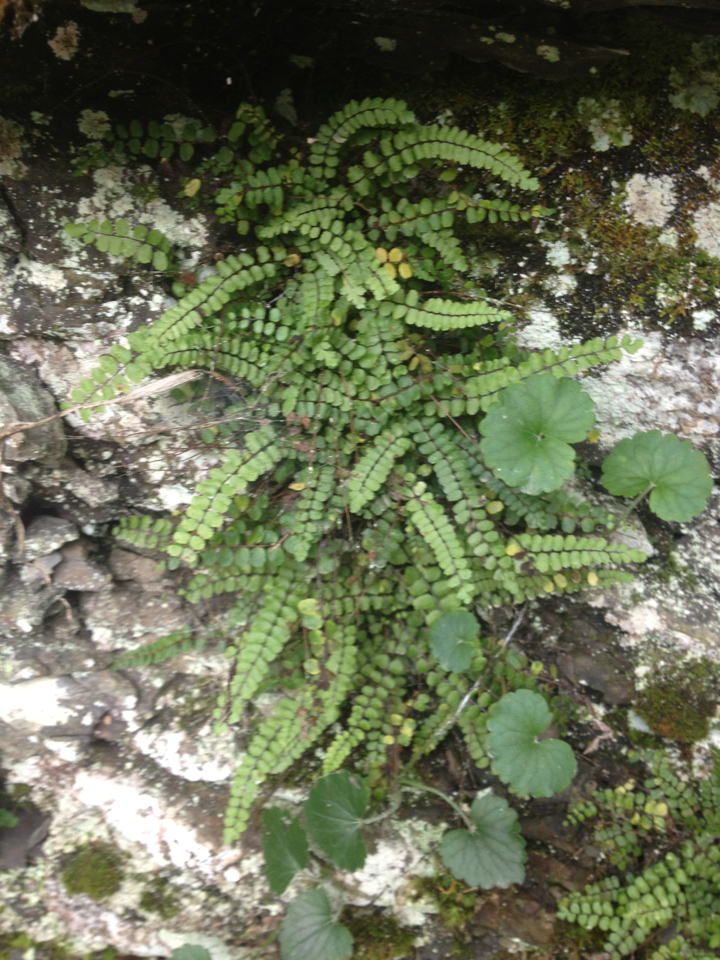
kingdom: Plantae
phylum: Tracheophyta
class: Polypodiopsida
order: Polypodiales
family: Aspleniaceae
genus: Asplenium
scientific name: Asplenium trichomanes
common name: Maidenhair spleenwort
